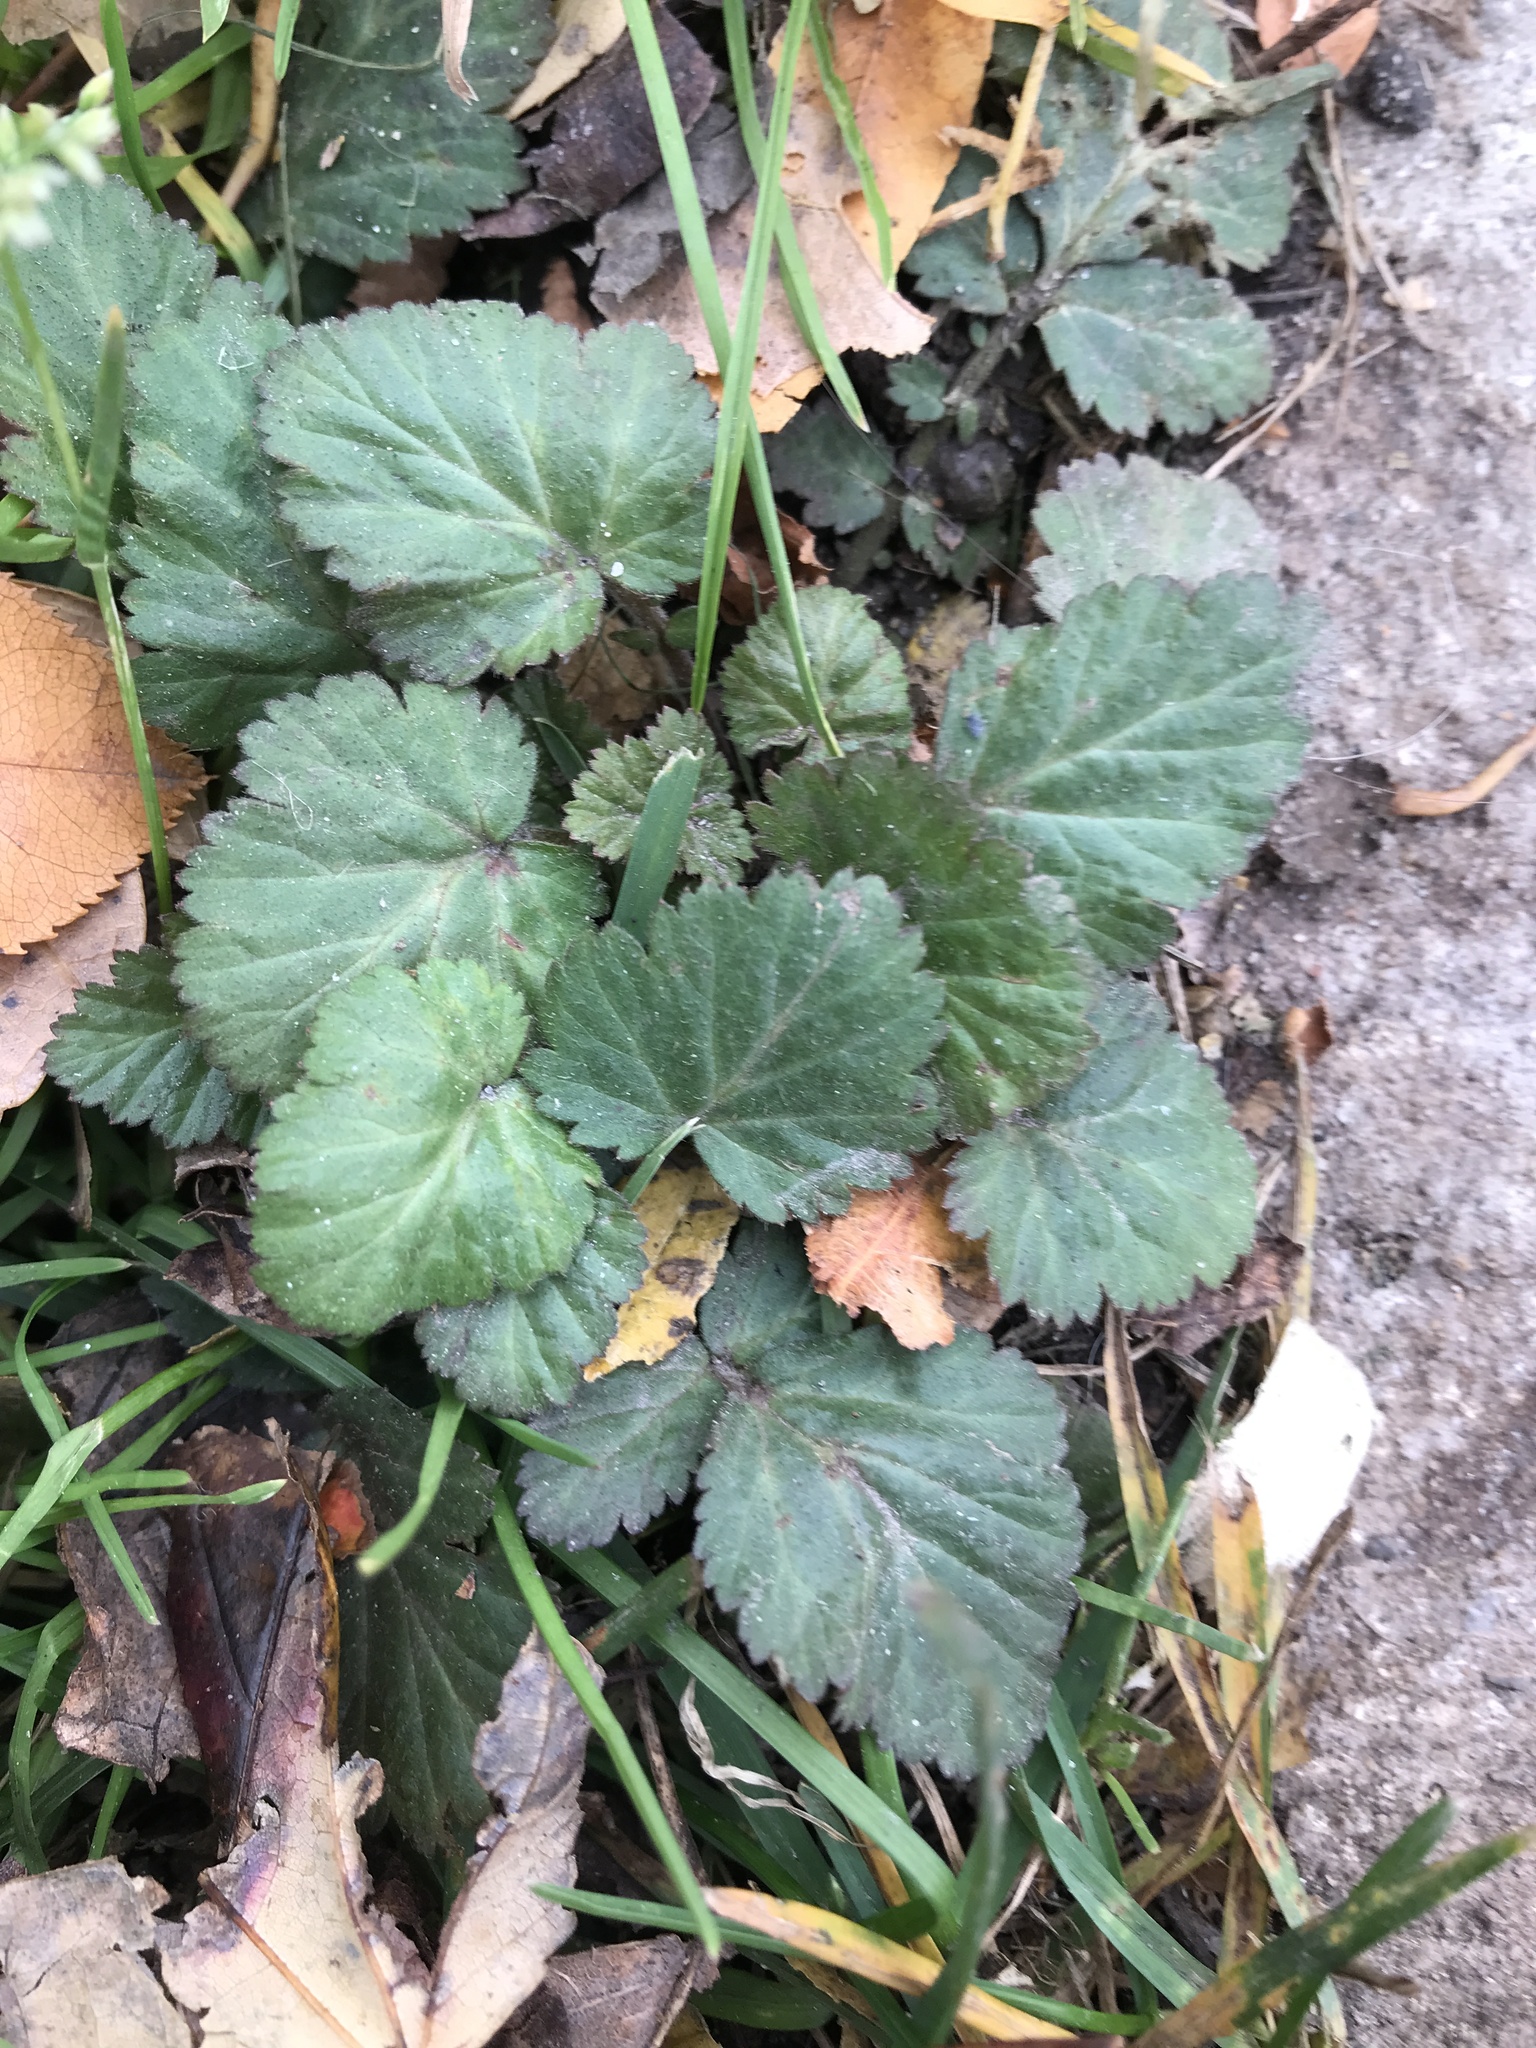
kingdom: Plantae
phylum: Tracheophyta
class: Magnoliopsida
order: Rosales
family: Rosaceae
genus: Geum
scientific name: Geum canadense
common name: White avens
